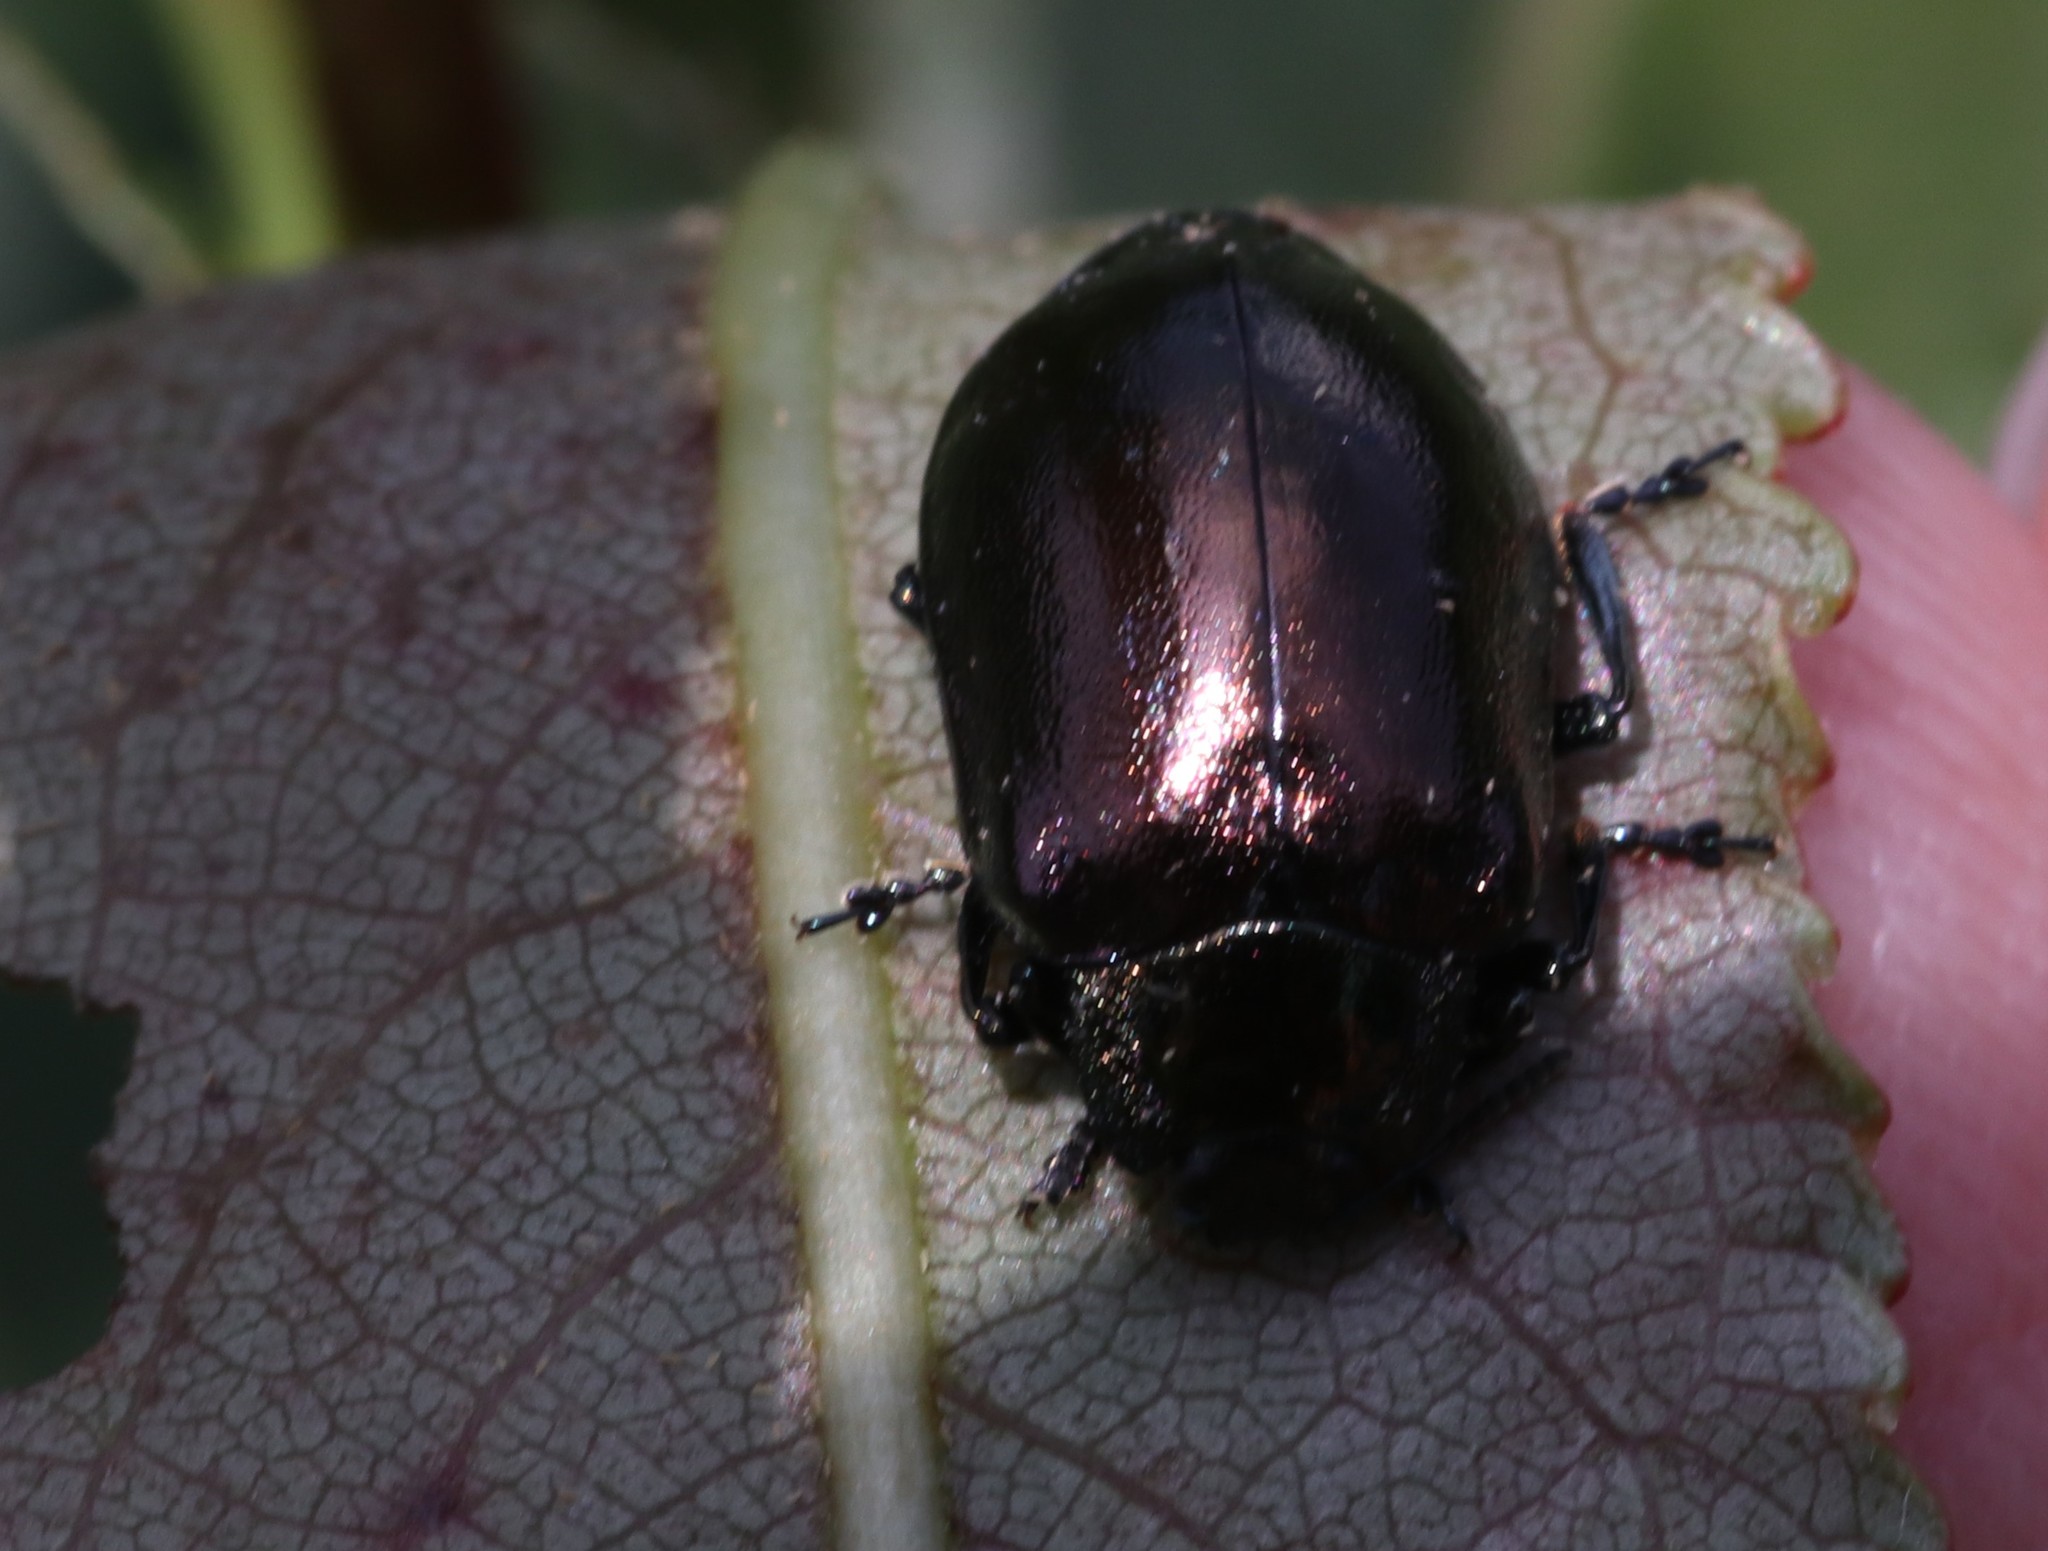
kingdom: Animalia
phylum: Arthropoda
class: Insecta
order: Coleoptera
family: Chrysomelidae
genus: Chrysomela
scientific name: Chrysomela cuprea
